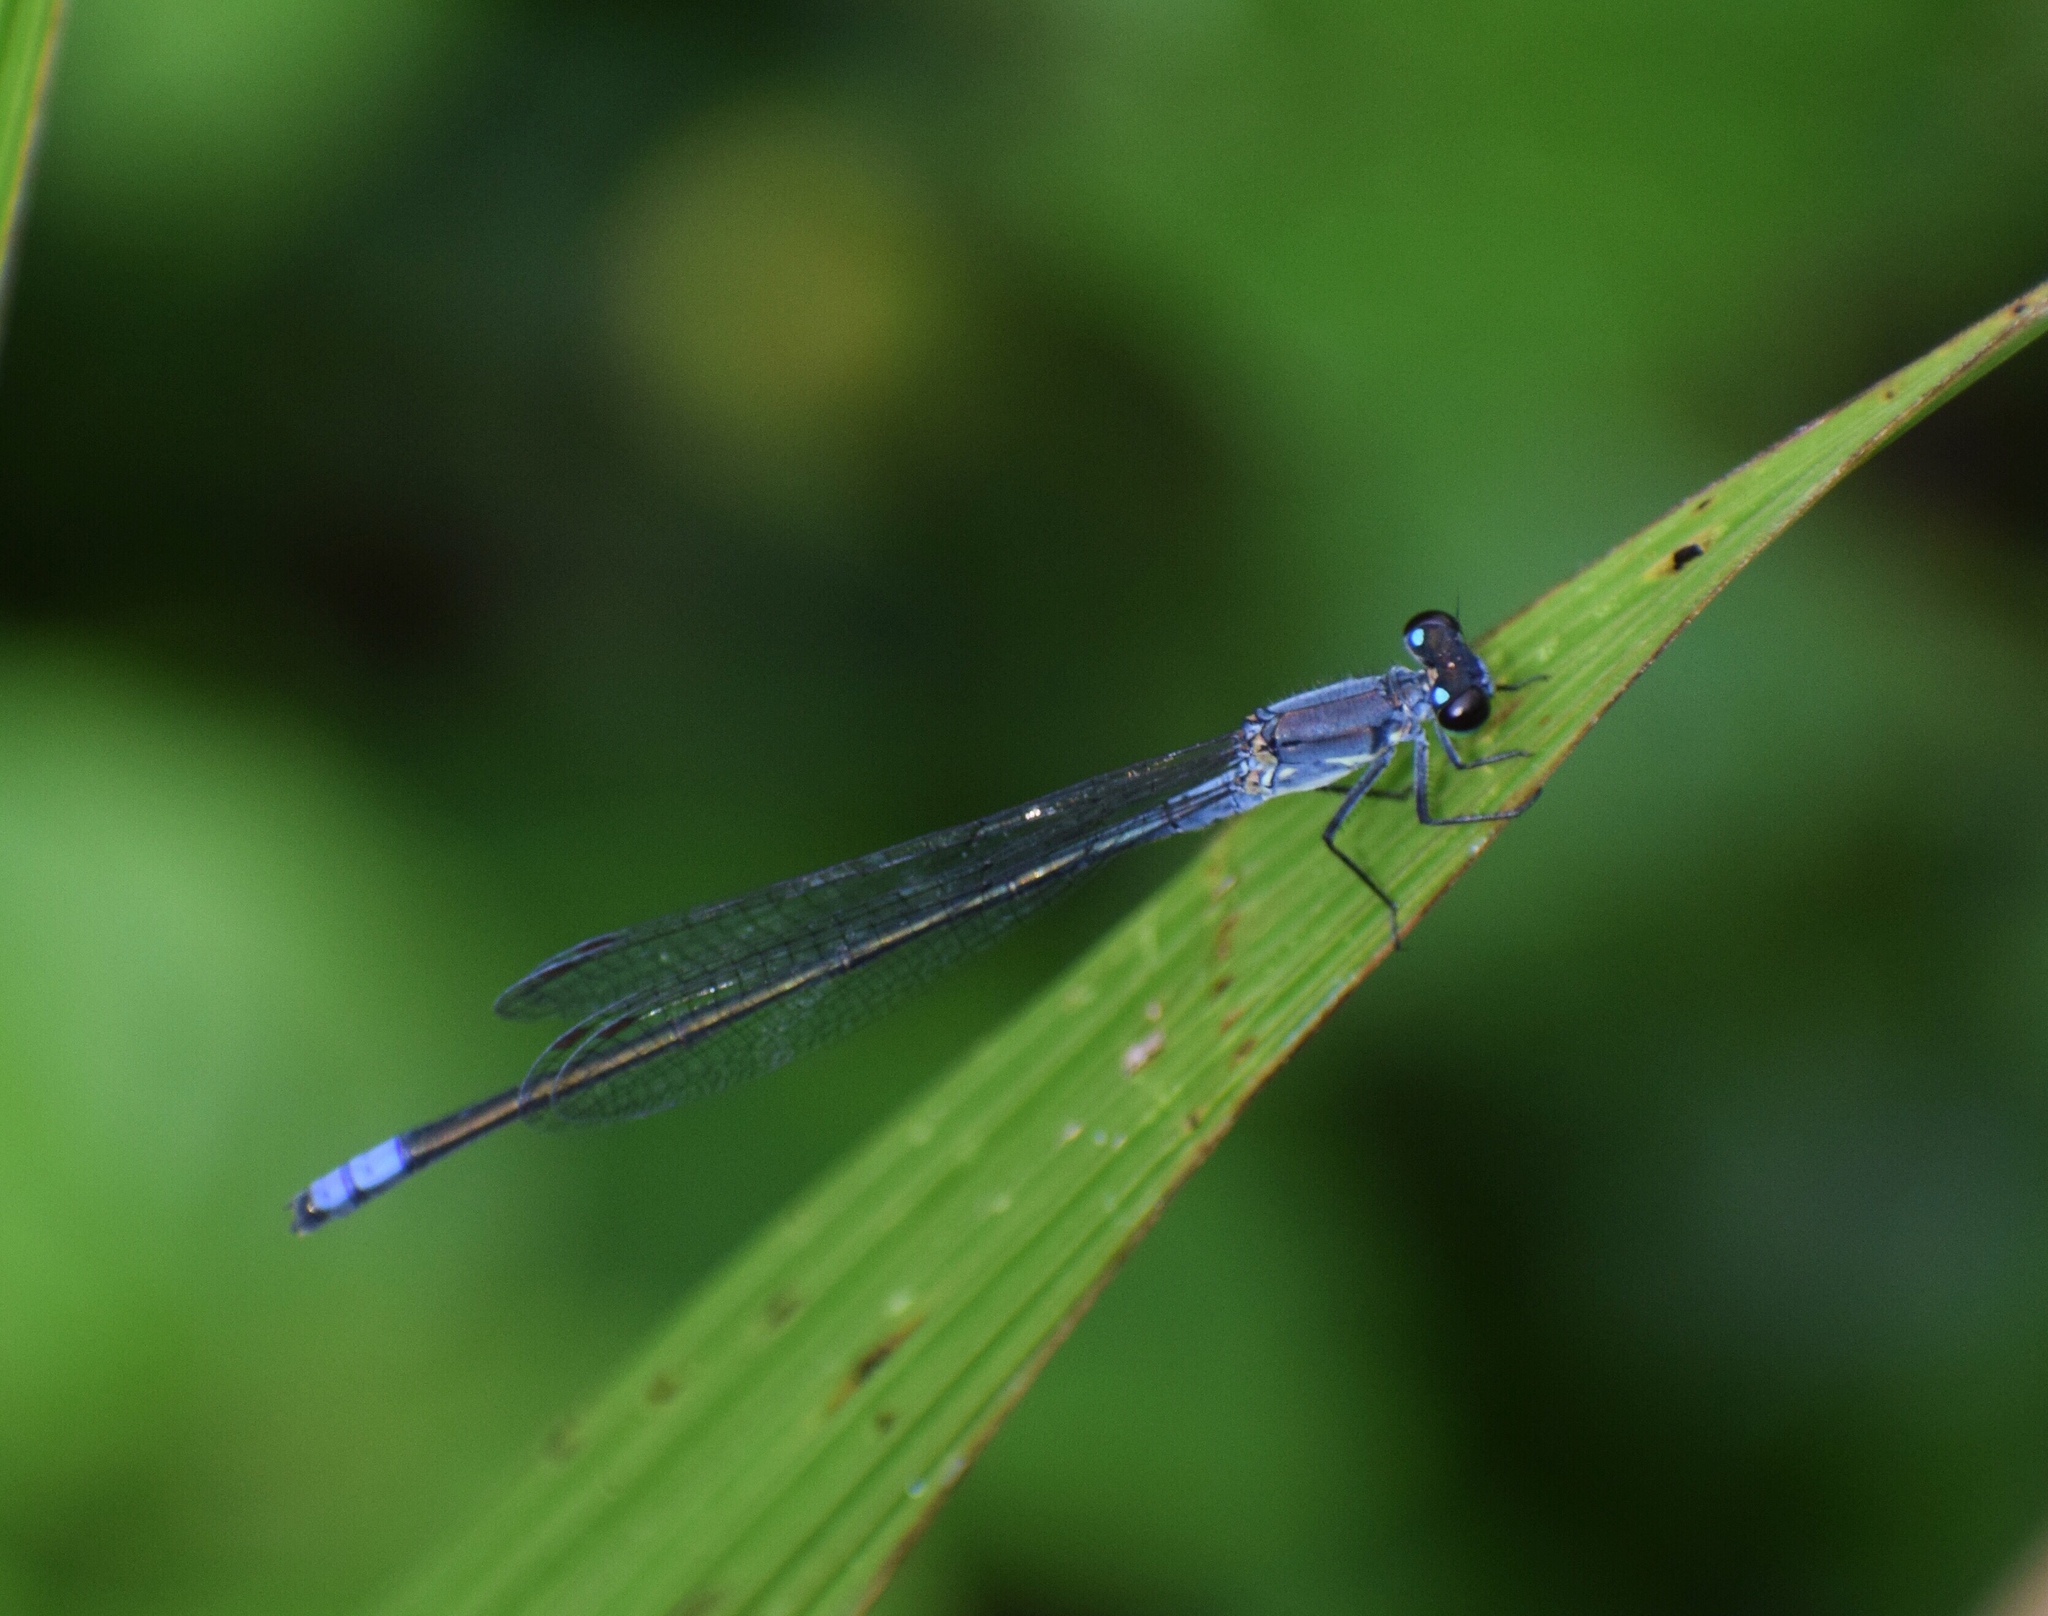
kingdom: Animalia
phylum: Arthropoda
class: Insecta
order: Odonata
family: Coenagrionidae
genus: Pseudagrion
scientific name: Pseudagrion salisburyense
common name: Slate sprite
